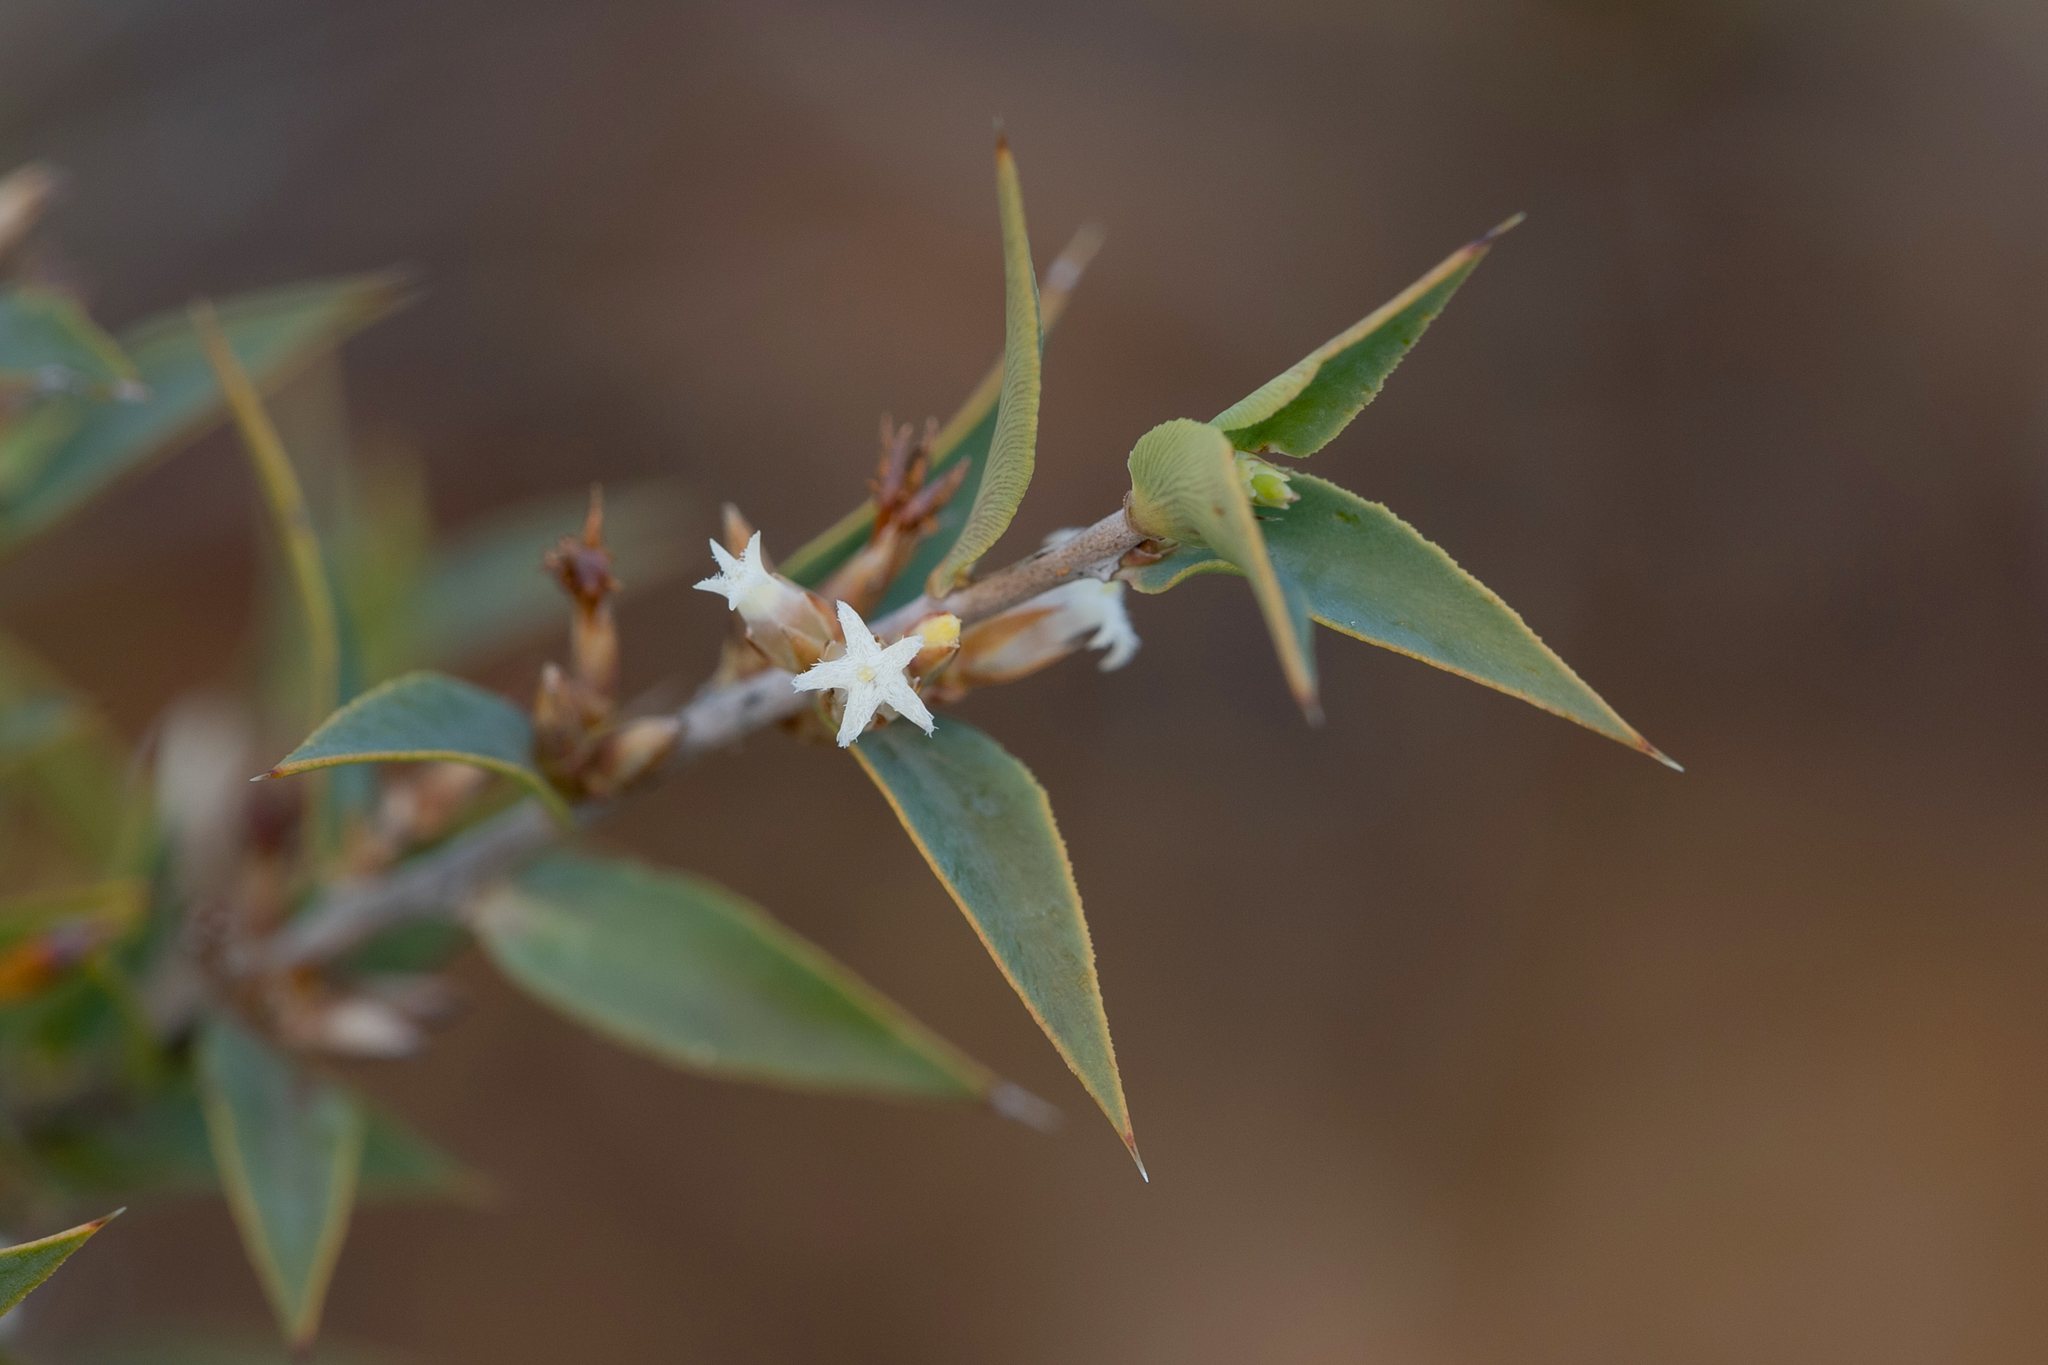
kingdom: Plantae
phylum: Tracheophyta
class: Magnoliopsida
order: Ericales
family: Ericaceae
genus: Styphelia
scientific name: Styphelia rufa
